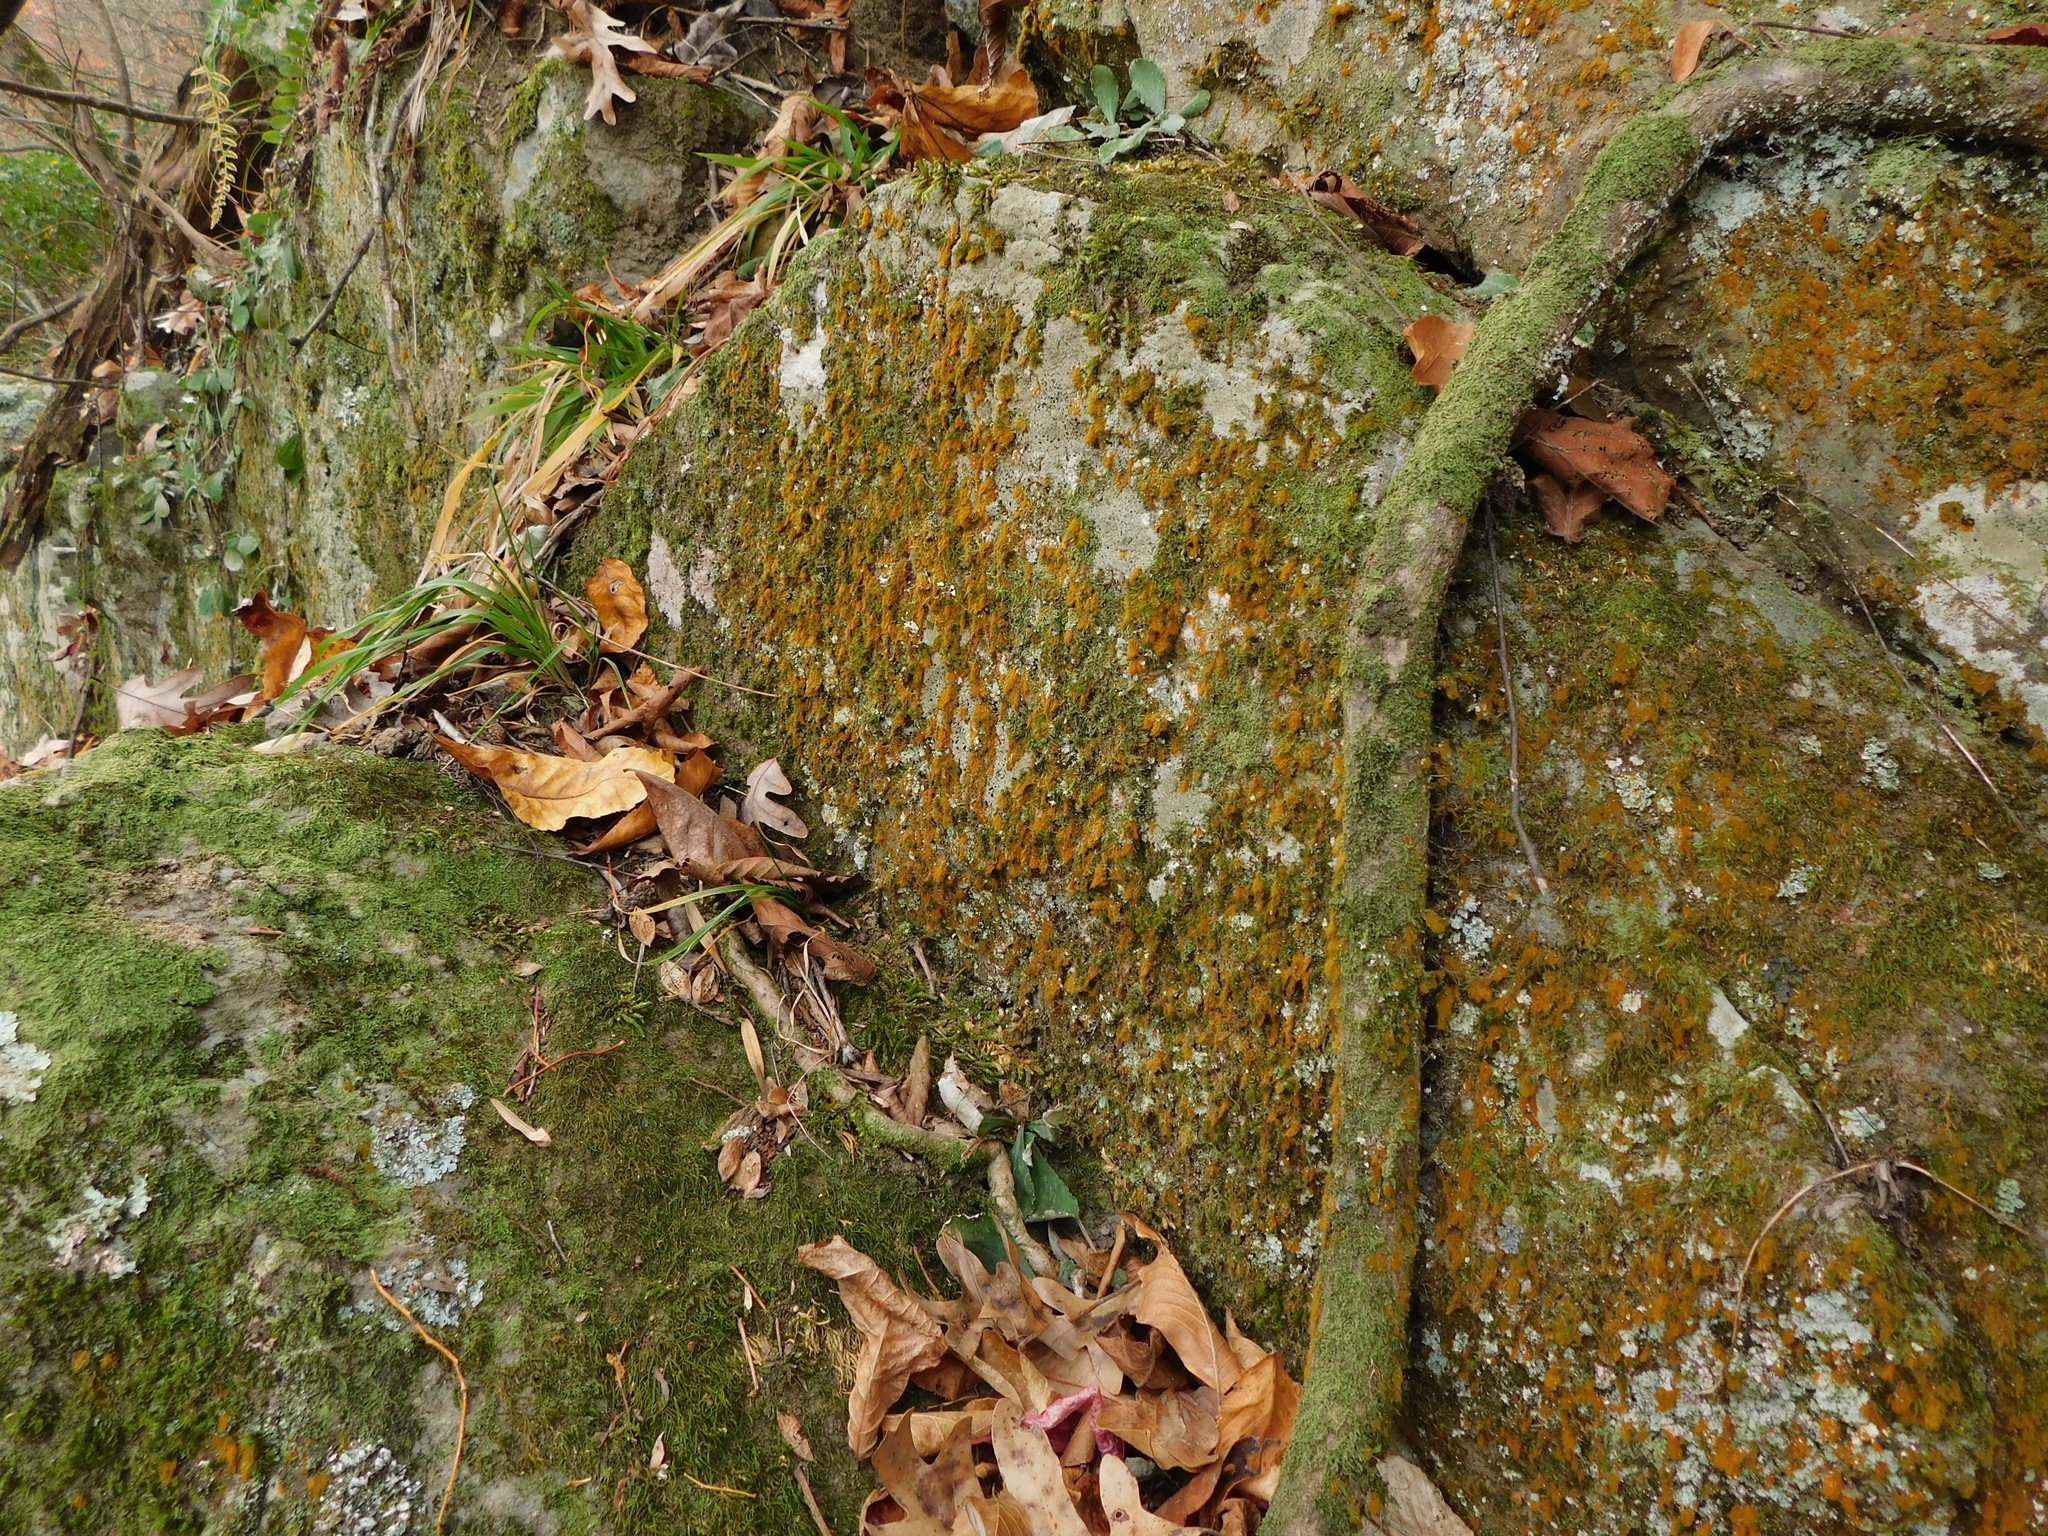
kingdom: Plantae
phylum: Chlorophyta
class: Ulvophyceae
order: Trentepohliales
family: Trentepohliaceae
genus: Trentepohlia
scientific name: Trentepohlia aurea
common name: Orange rock hair
